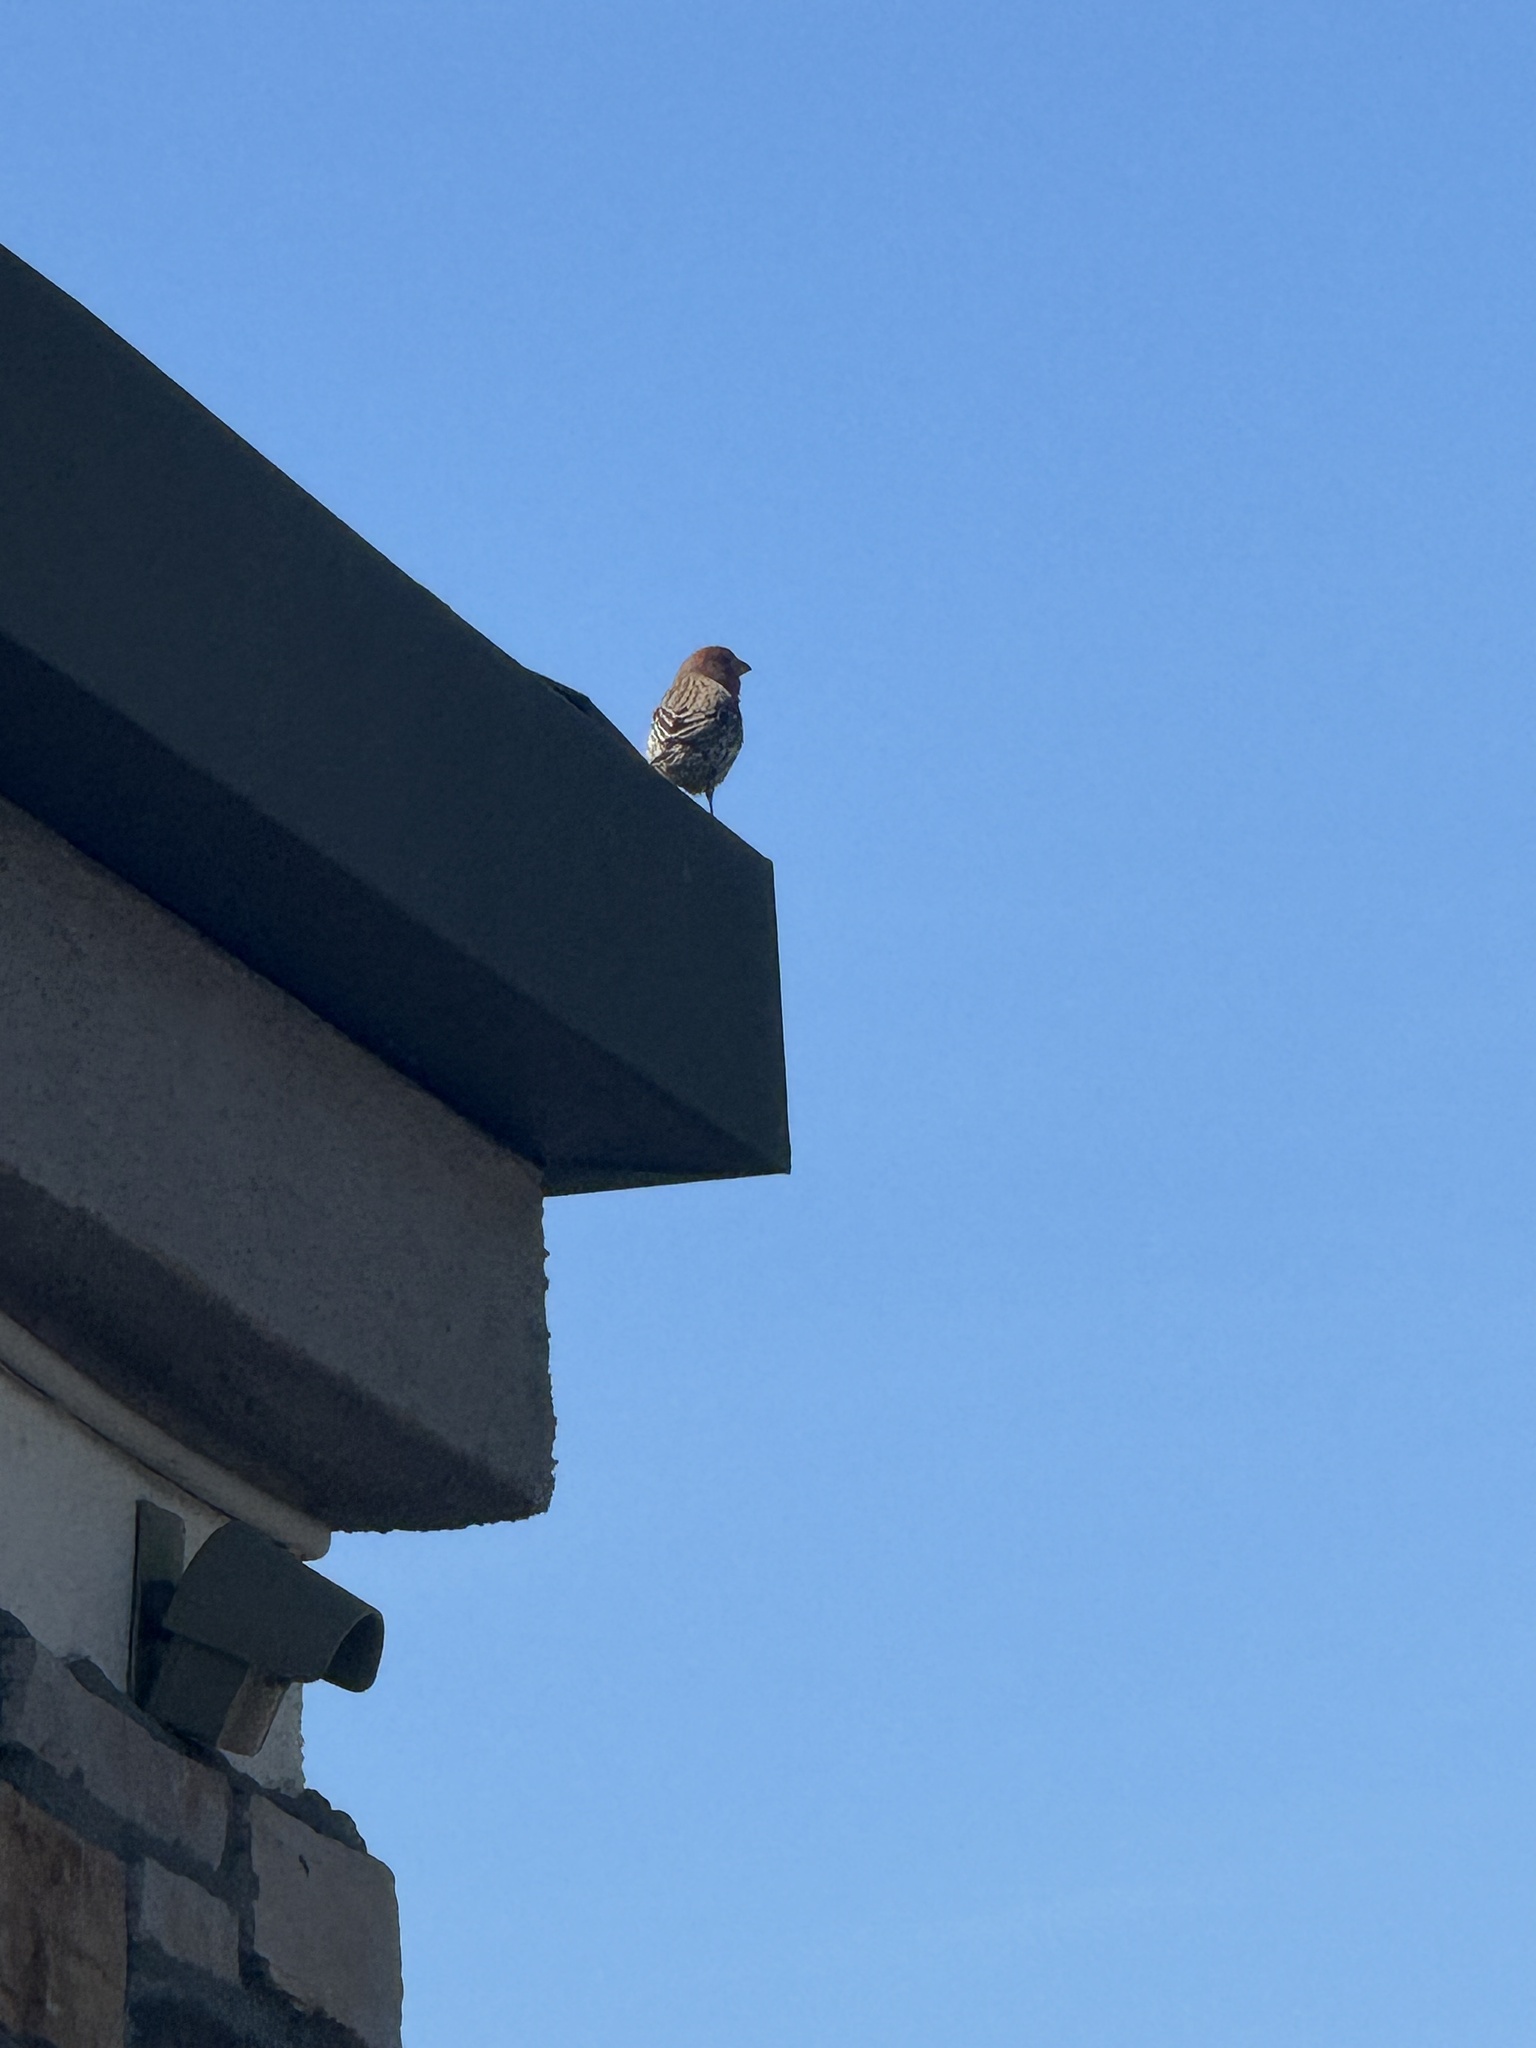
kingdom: Animalia
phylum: Chordata
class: Aves
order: Passeriformes
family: Fringillidae
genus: Haemorhous
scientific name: Haemorhous mexicanus
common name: House finch
